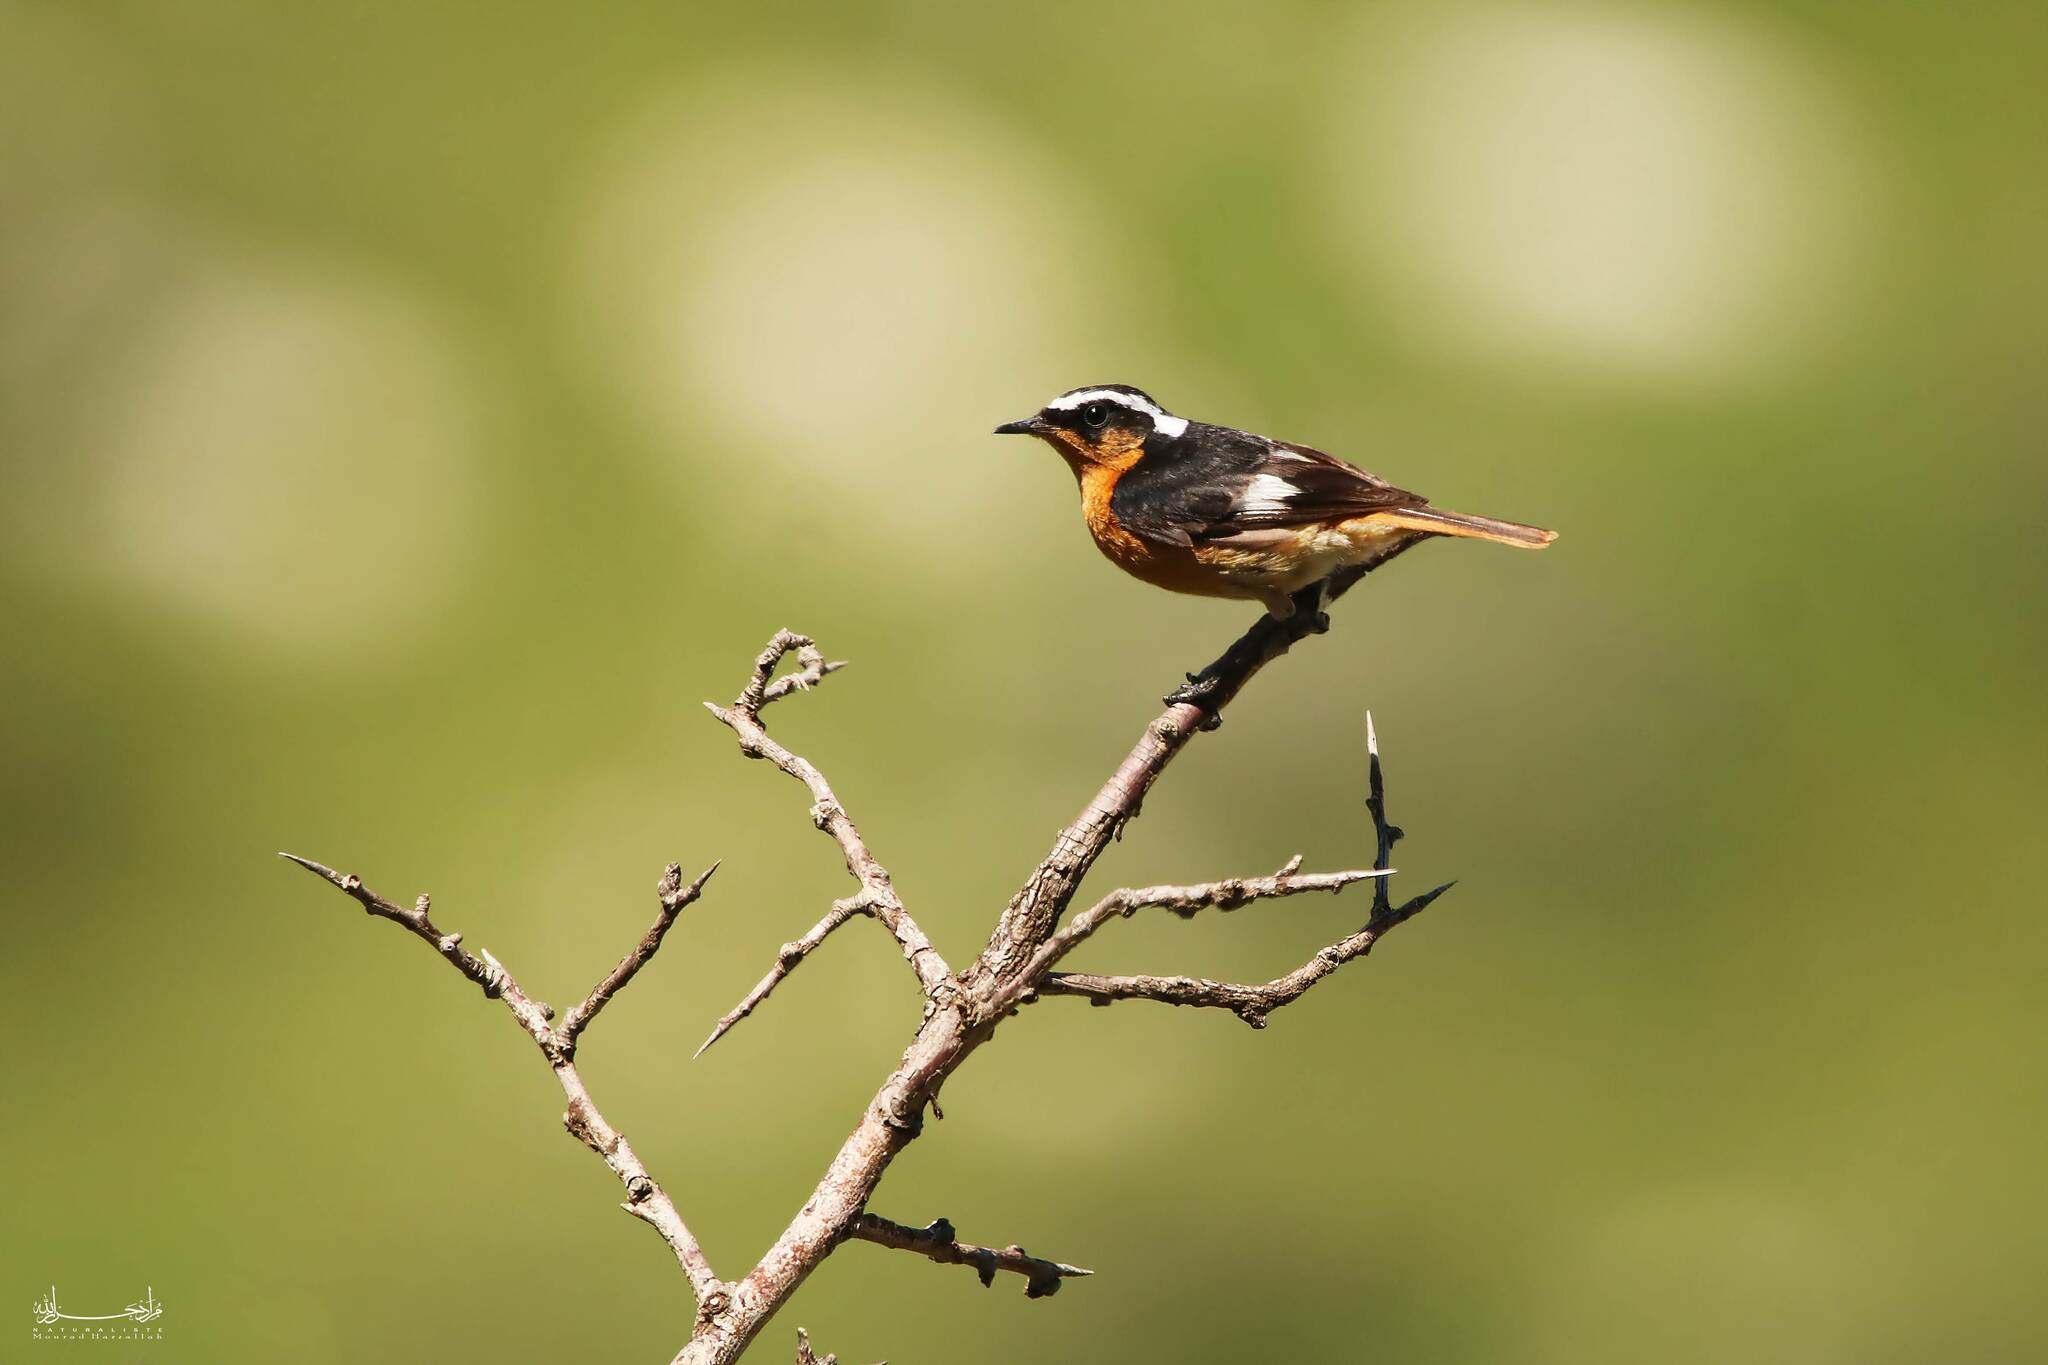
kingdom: Animalia
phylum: Chordata
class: Aves
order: Passeriformes
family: Muscicapidae
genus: Phoenicurus
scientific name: Phoenicurus moussieri
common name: Moussier's redstart
